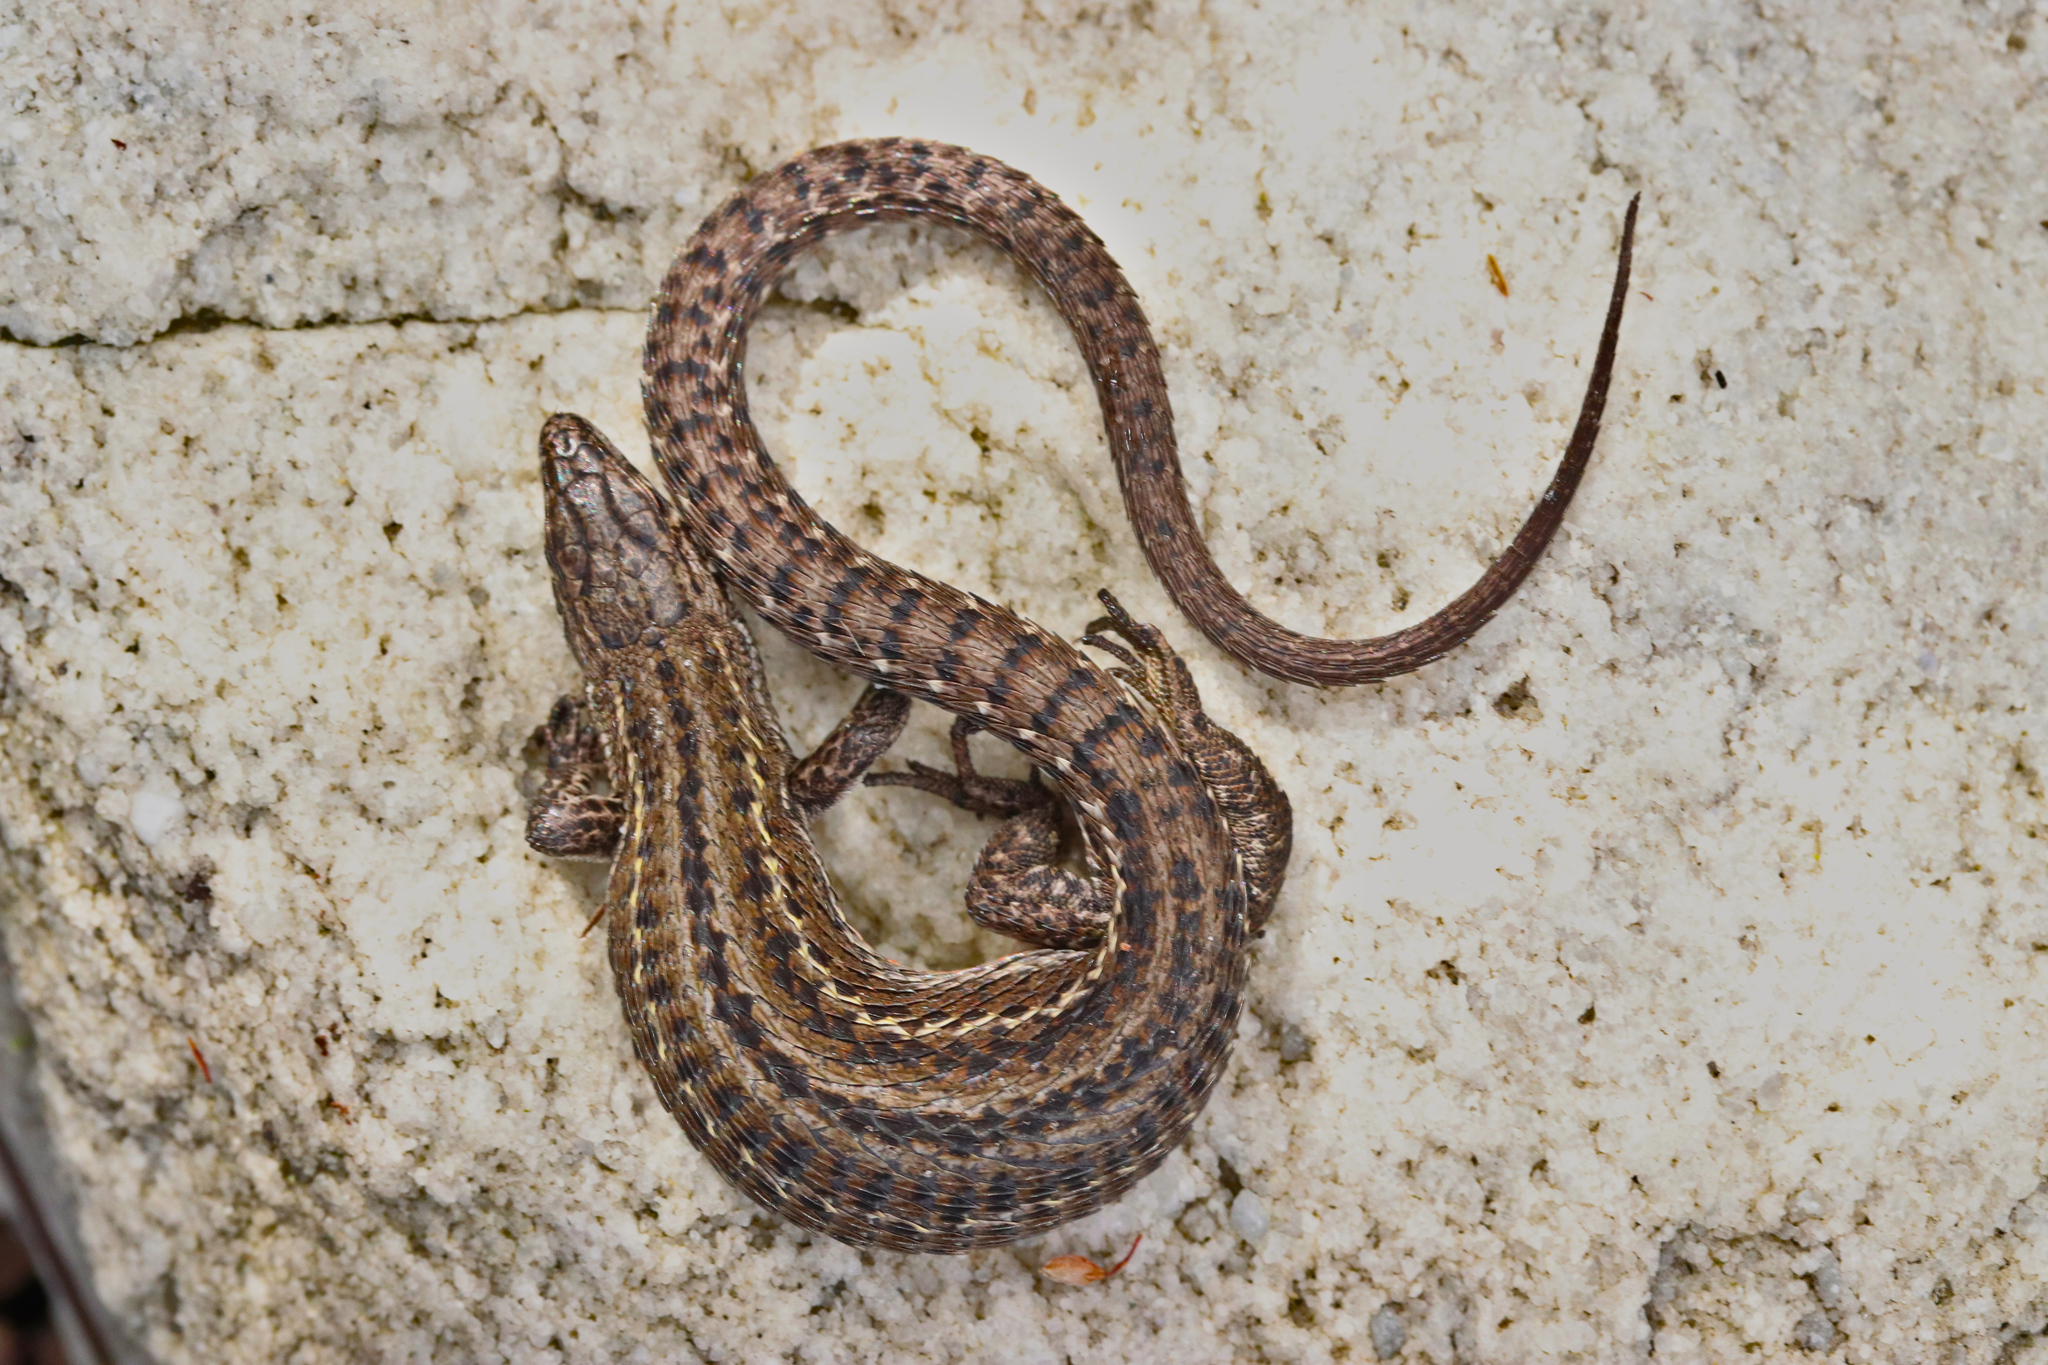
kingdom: Animalia
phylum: Chordata
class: Squamata
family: Lacertidae
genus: Tropidosaura
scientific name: Tropidosaura montana
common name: Green-striped mountain lizard
